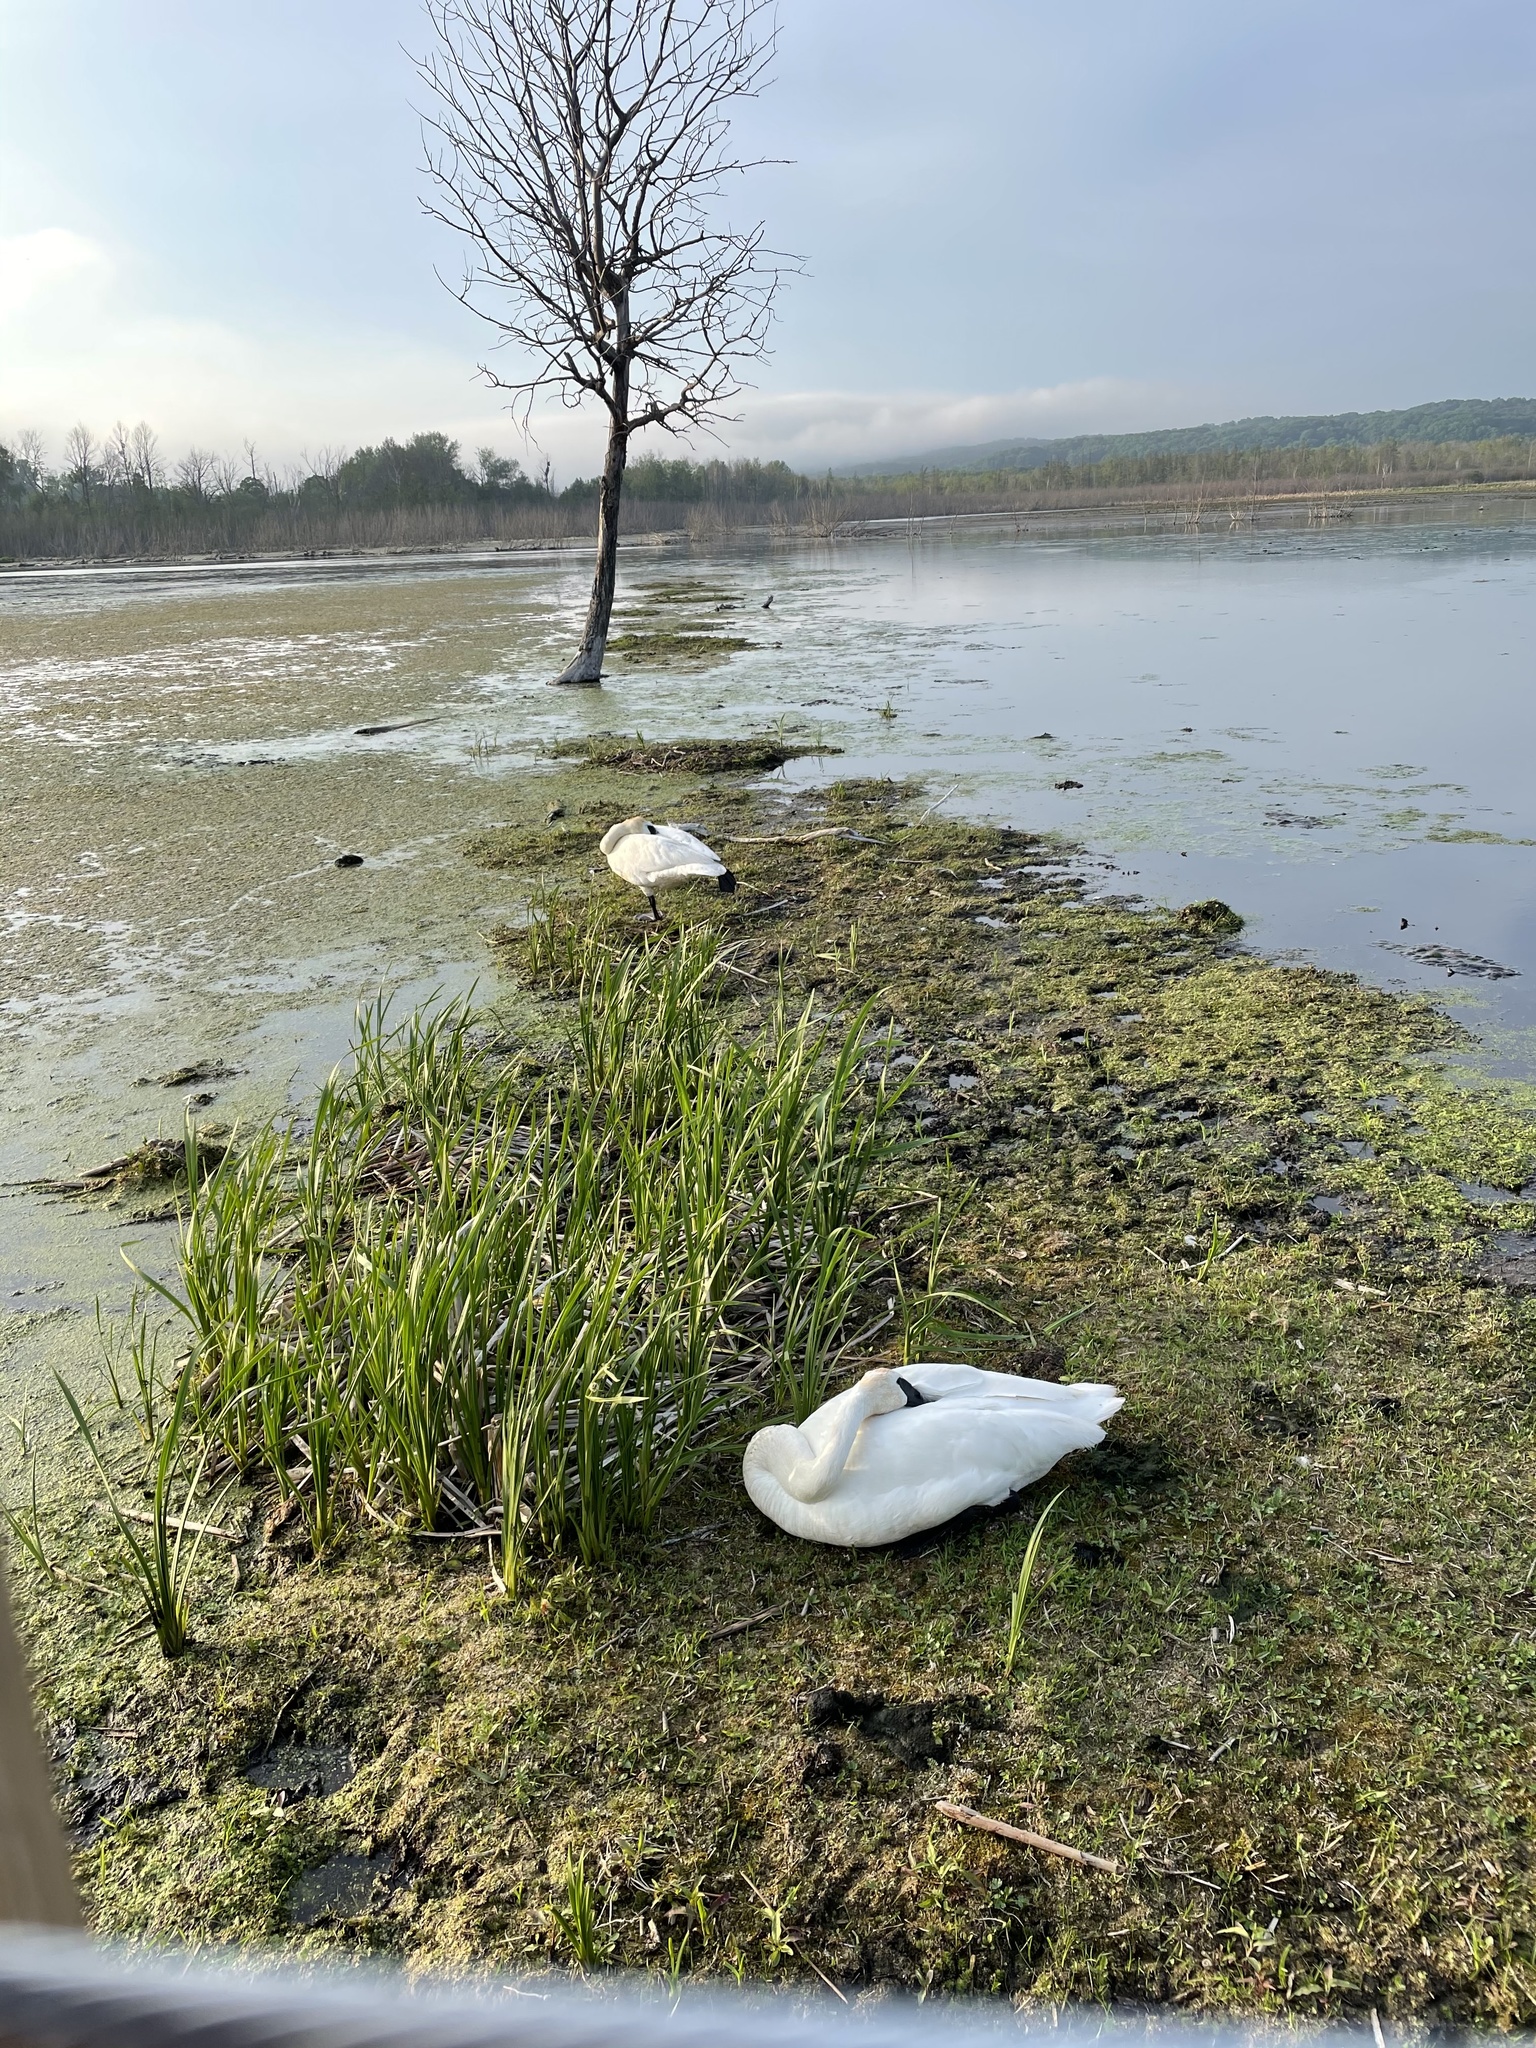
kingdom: Animalia
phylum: Chordata
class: Aves
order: Anseriformes
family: Anatidae
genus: Cygnus
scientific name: Cygnus buccinator
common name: Trumpeter swan
